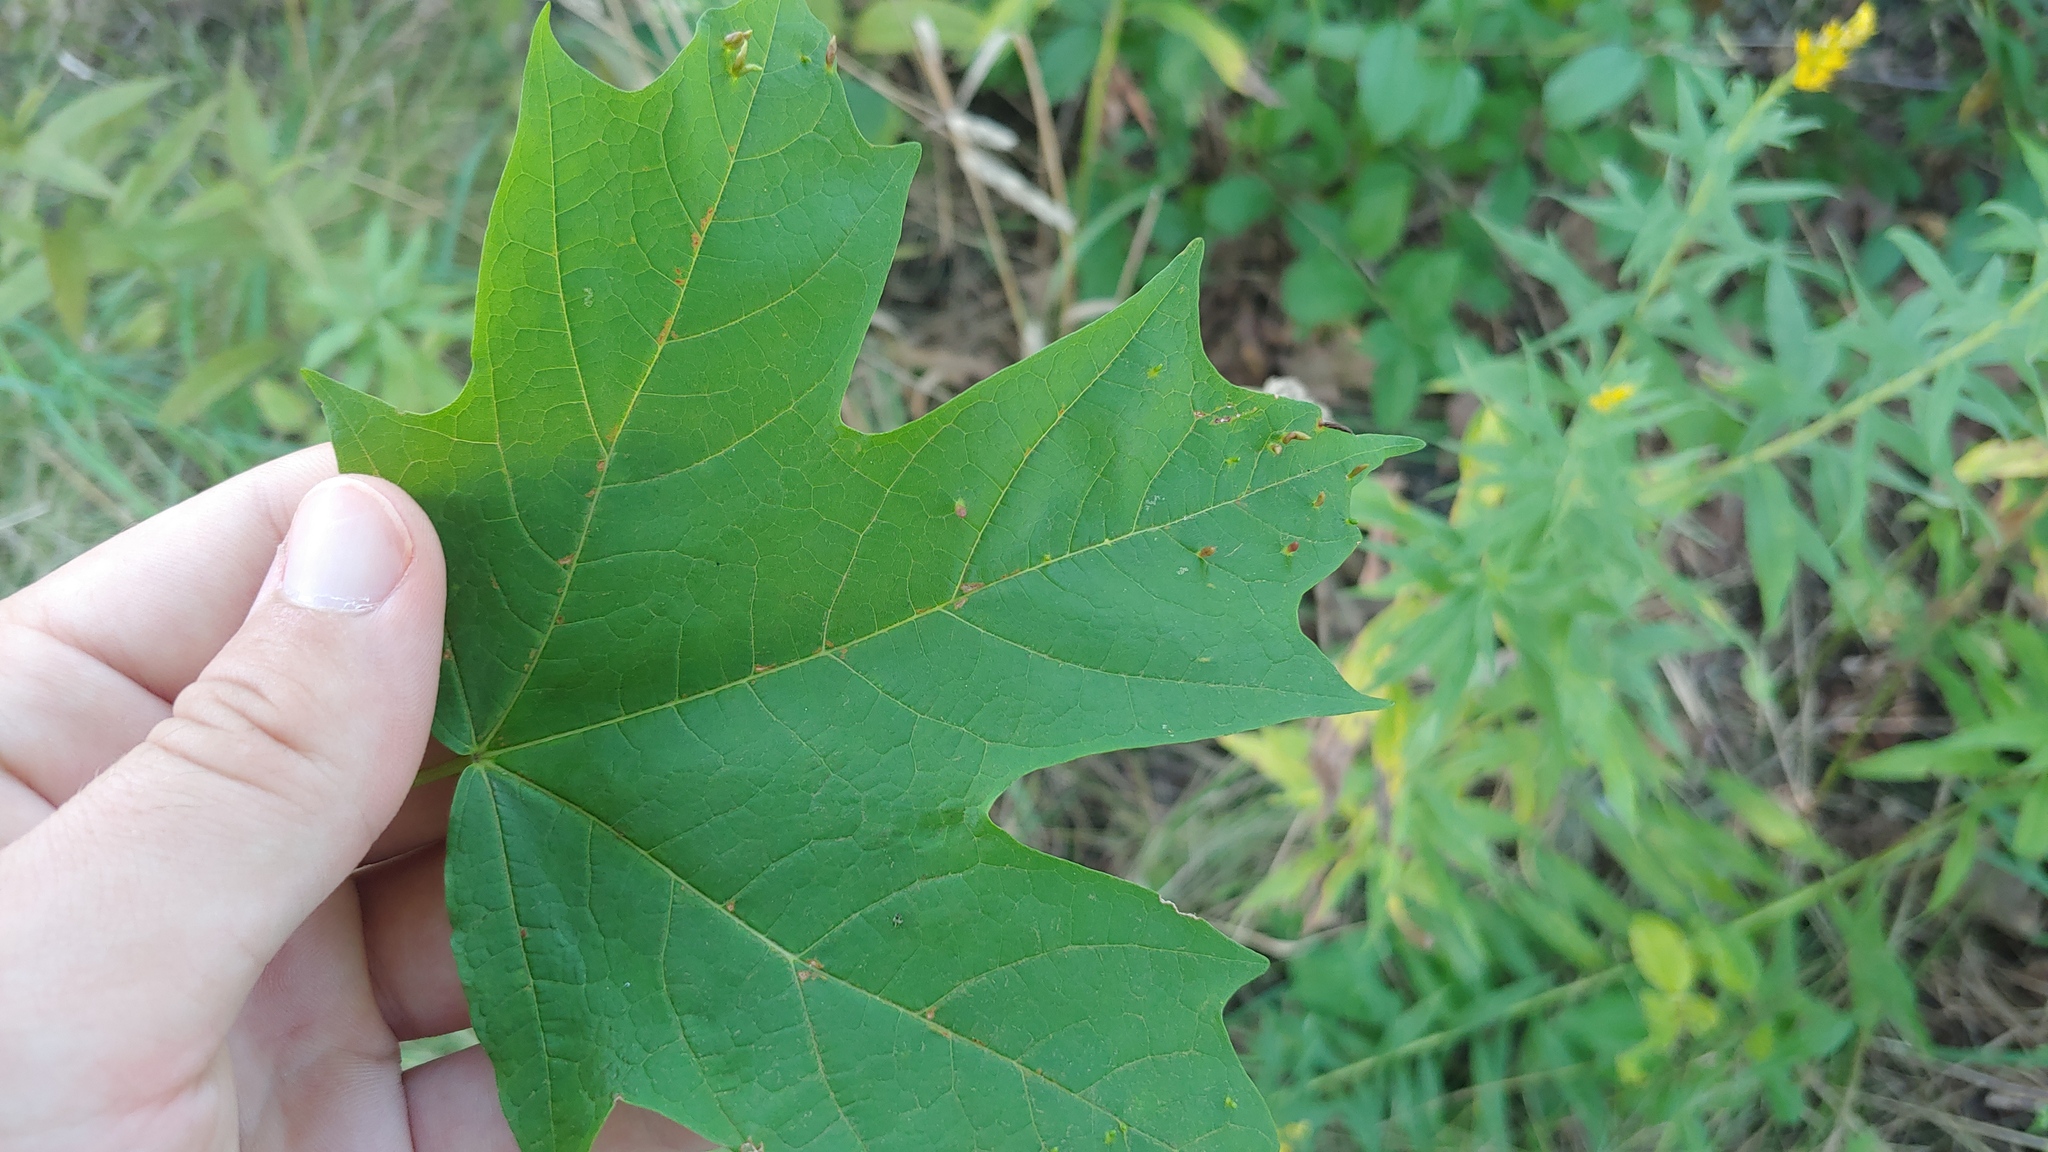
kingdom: Animalia
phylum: Arthropoda
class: Arachnida
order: Trombidiformes
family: Eriophyidae
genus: Vasates
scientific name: Vasates aceriscrumena
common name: Maple spindle gall mite
